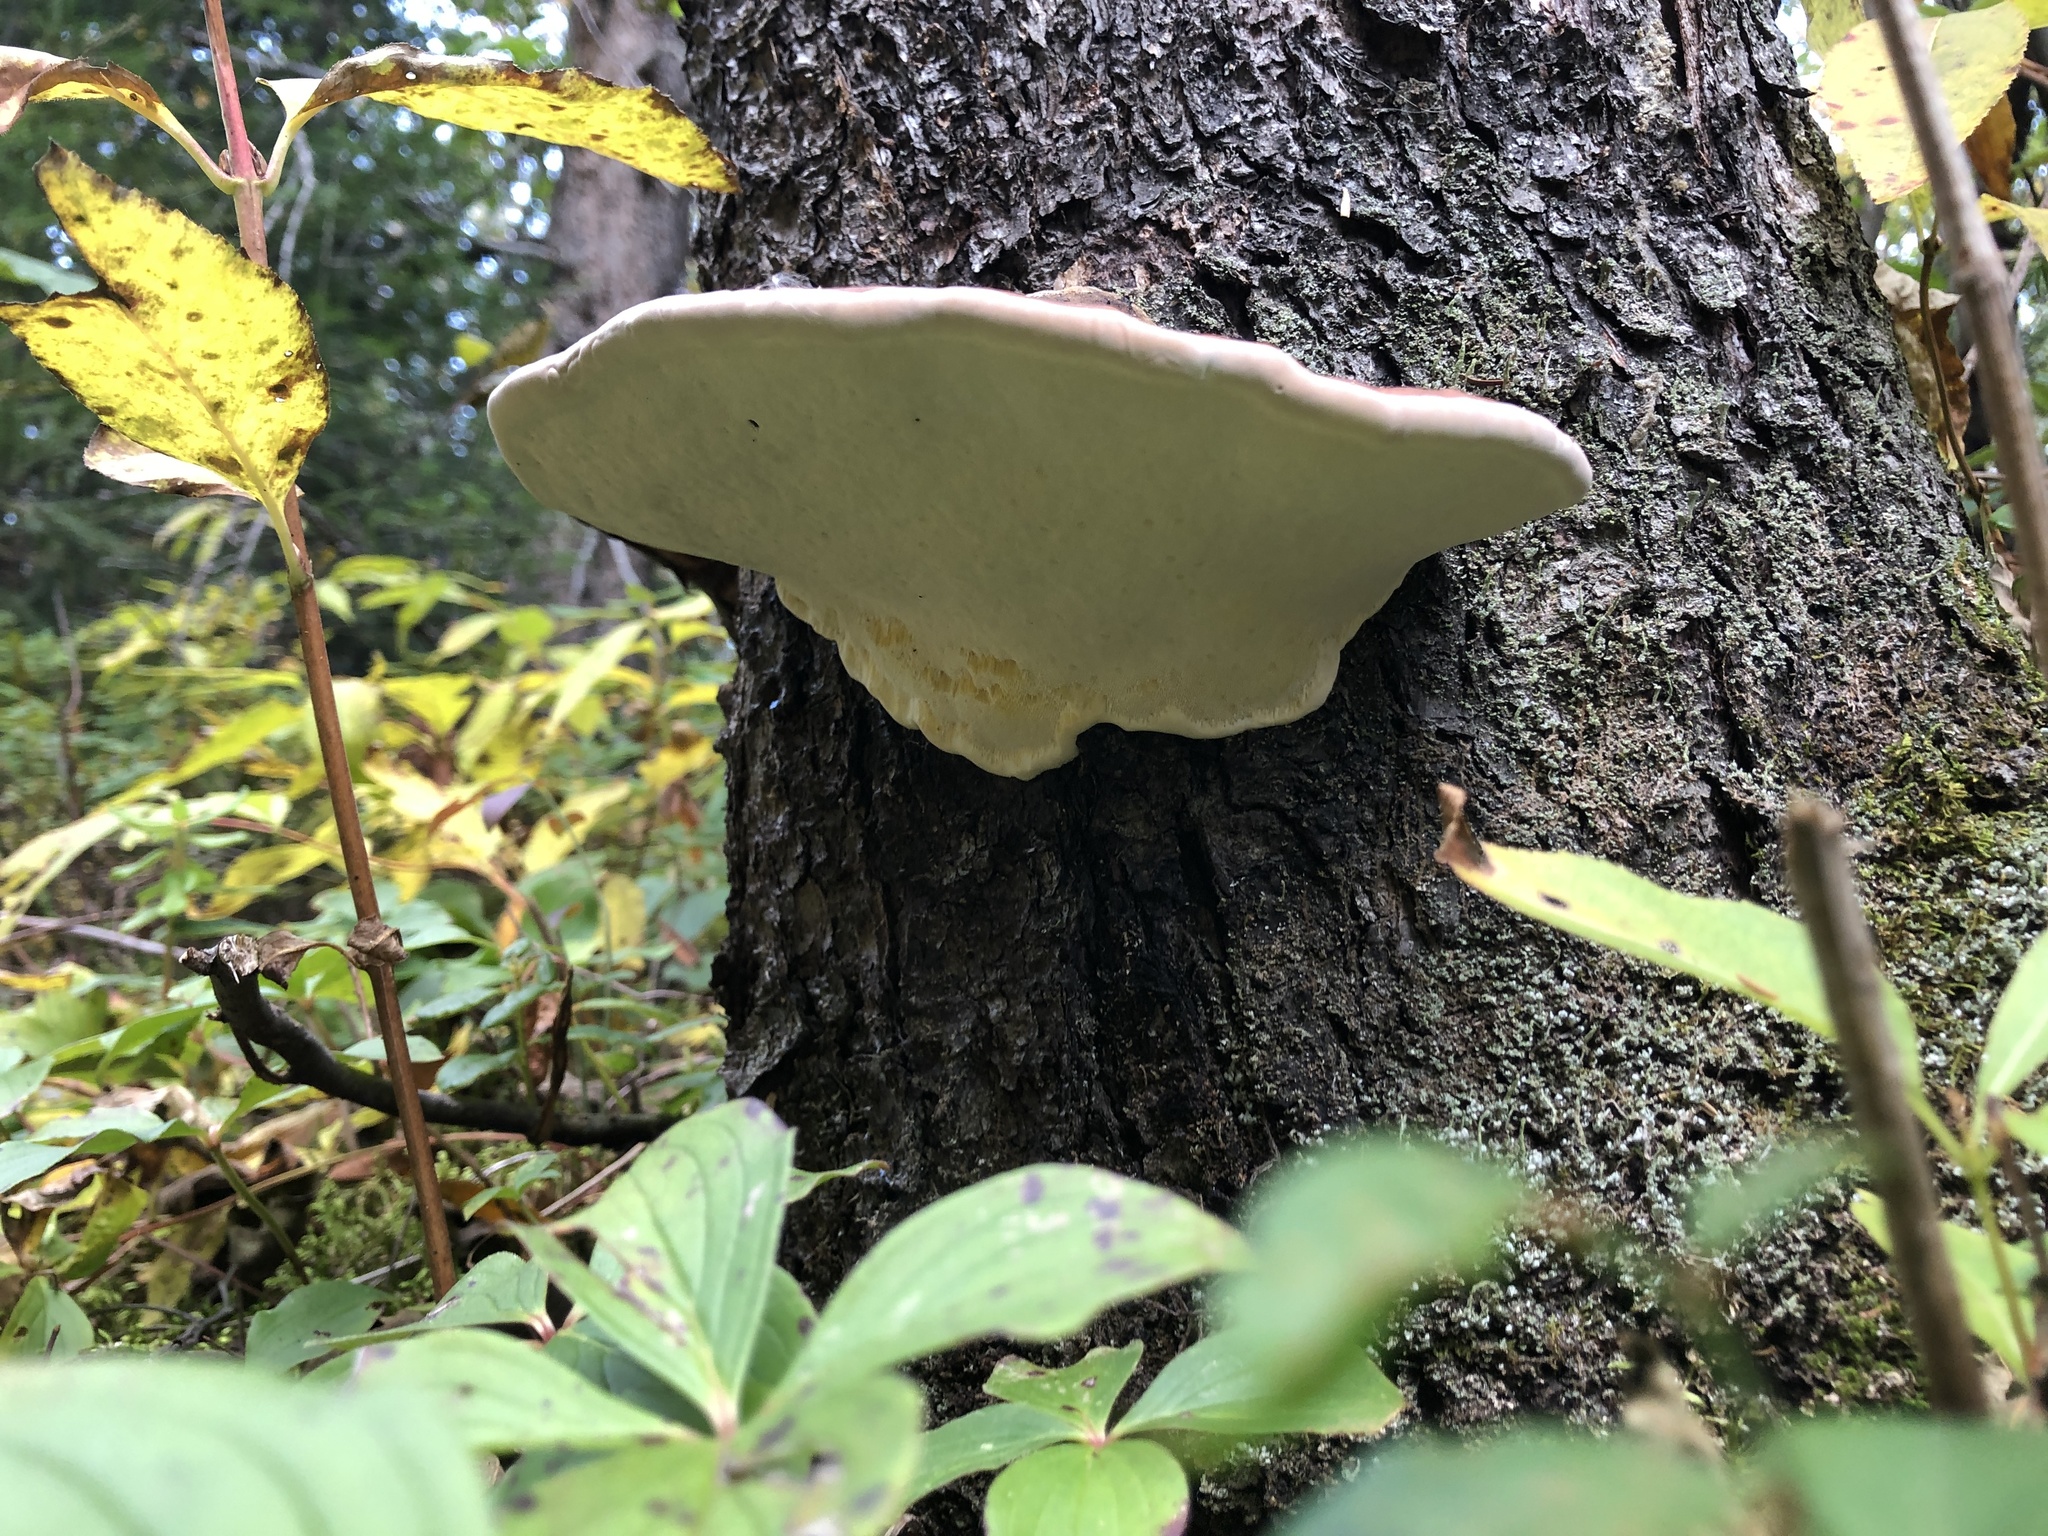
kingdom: Fungi
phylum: Basidiomycota
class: Agaricomycetes
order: Polyporales
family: Fomitopsidaceae
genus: Fomitopsis
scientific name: Fomitopsis mounceae
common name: Northern red belt
